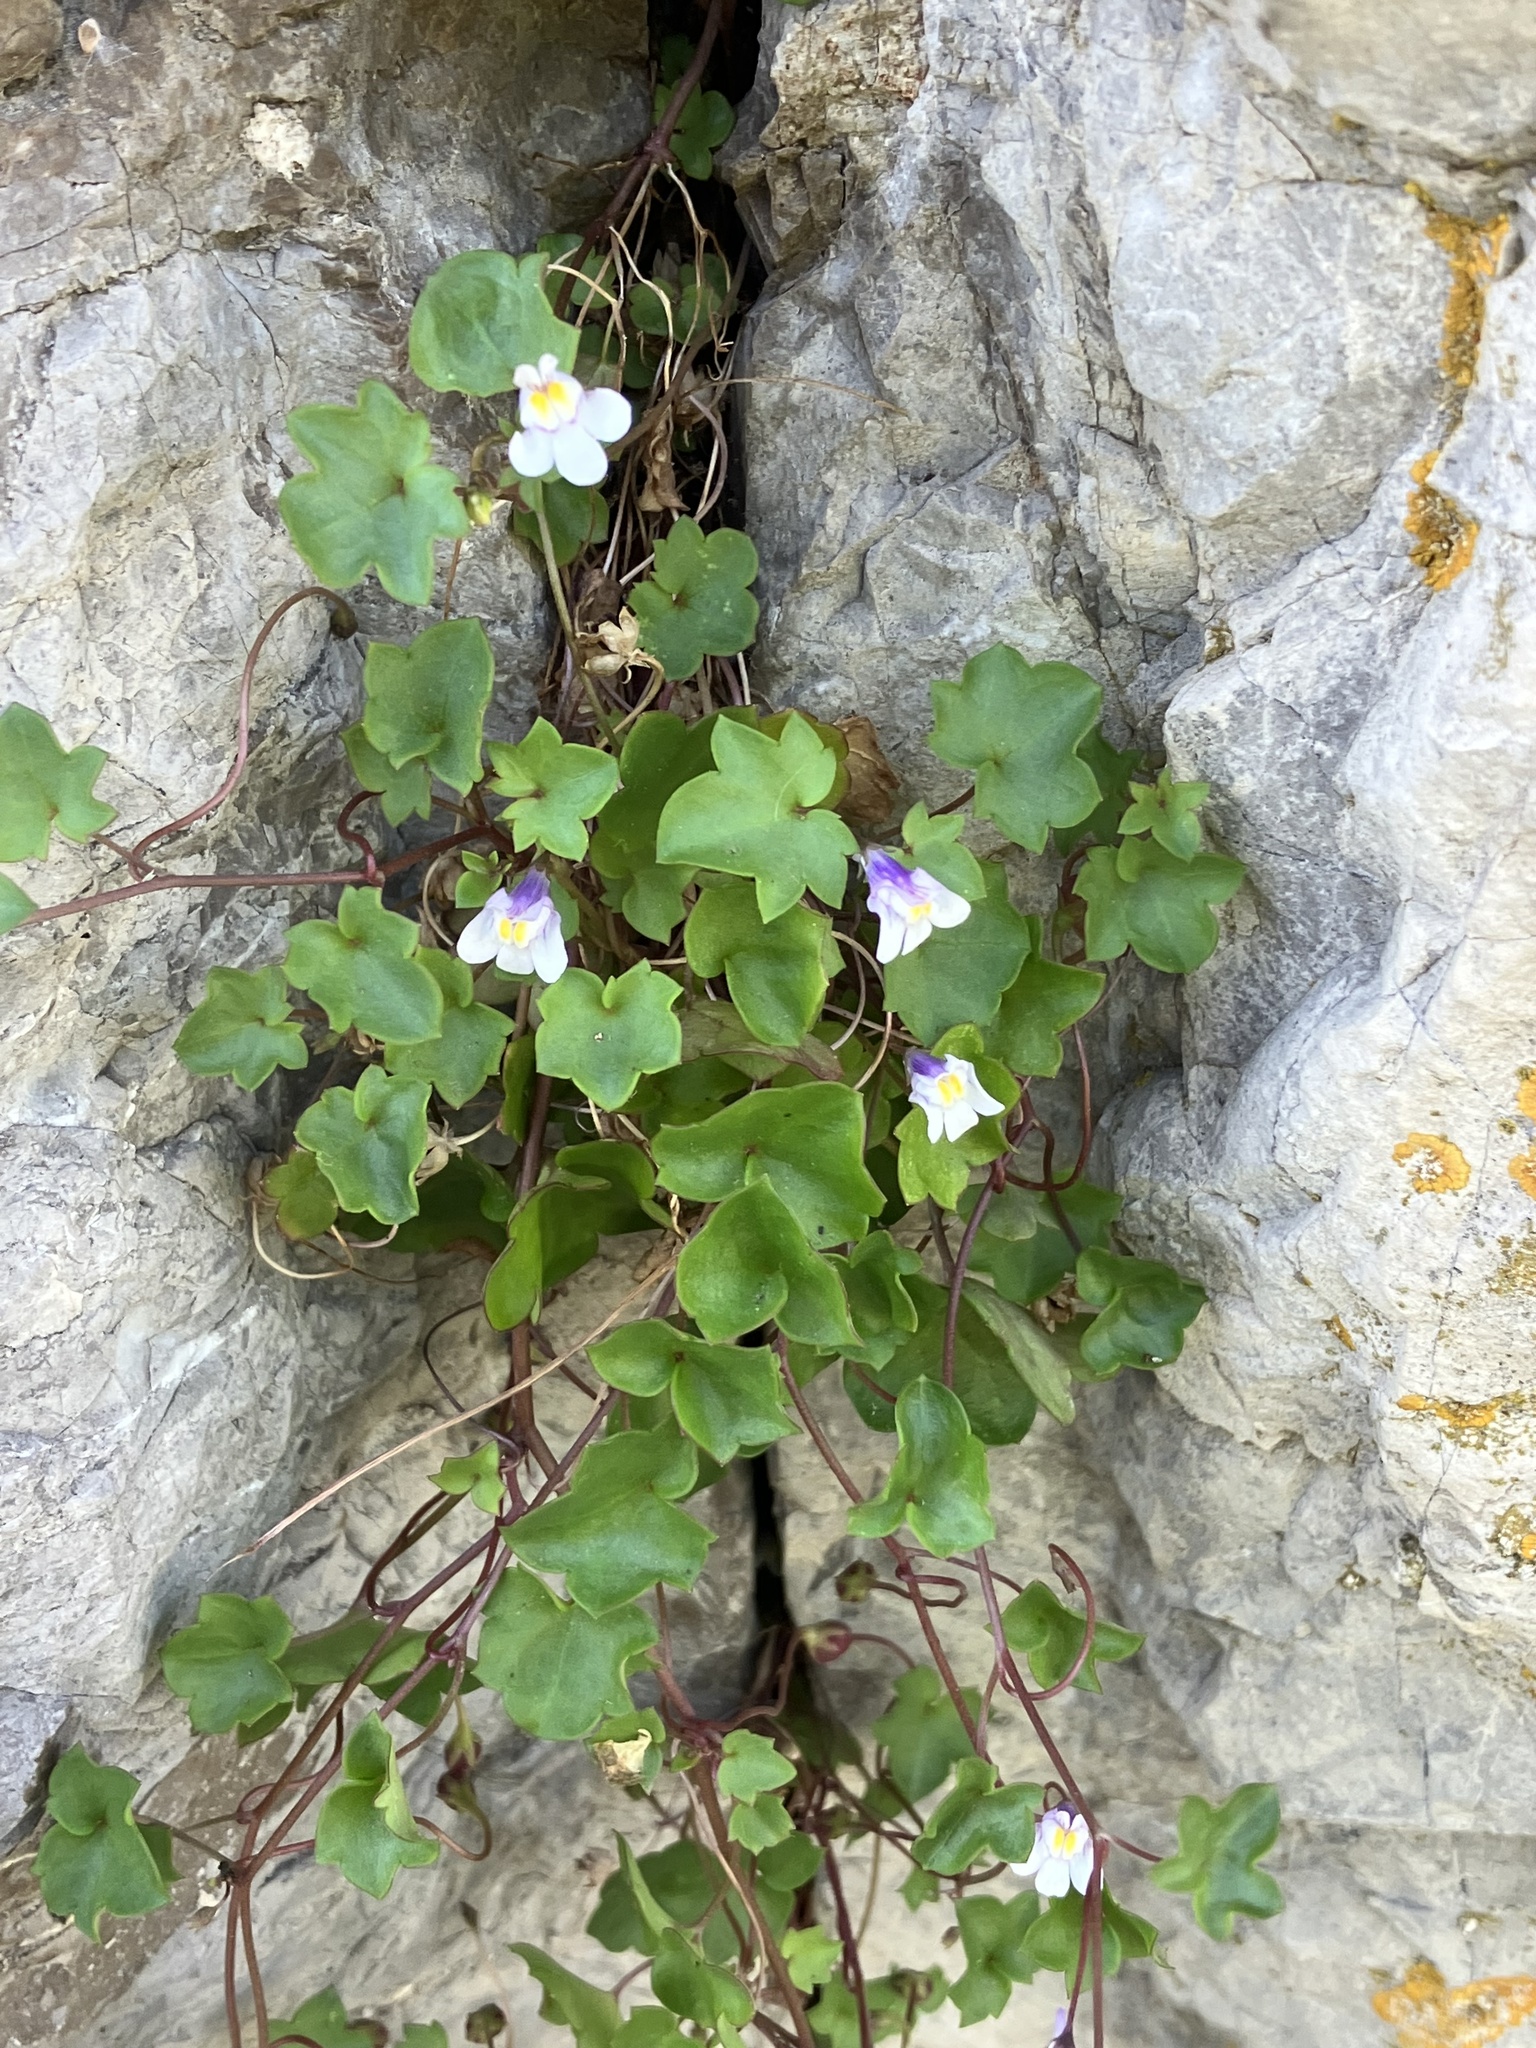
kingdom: Plantae
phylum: Tracheophyta
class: Magnoliopsida
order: Lamiales
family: Plantaginaceae
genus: Cymbalaria
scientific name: Cymbalaria muralis
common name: Ivy-leaved toadflax
